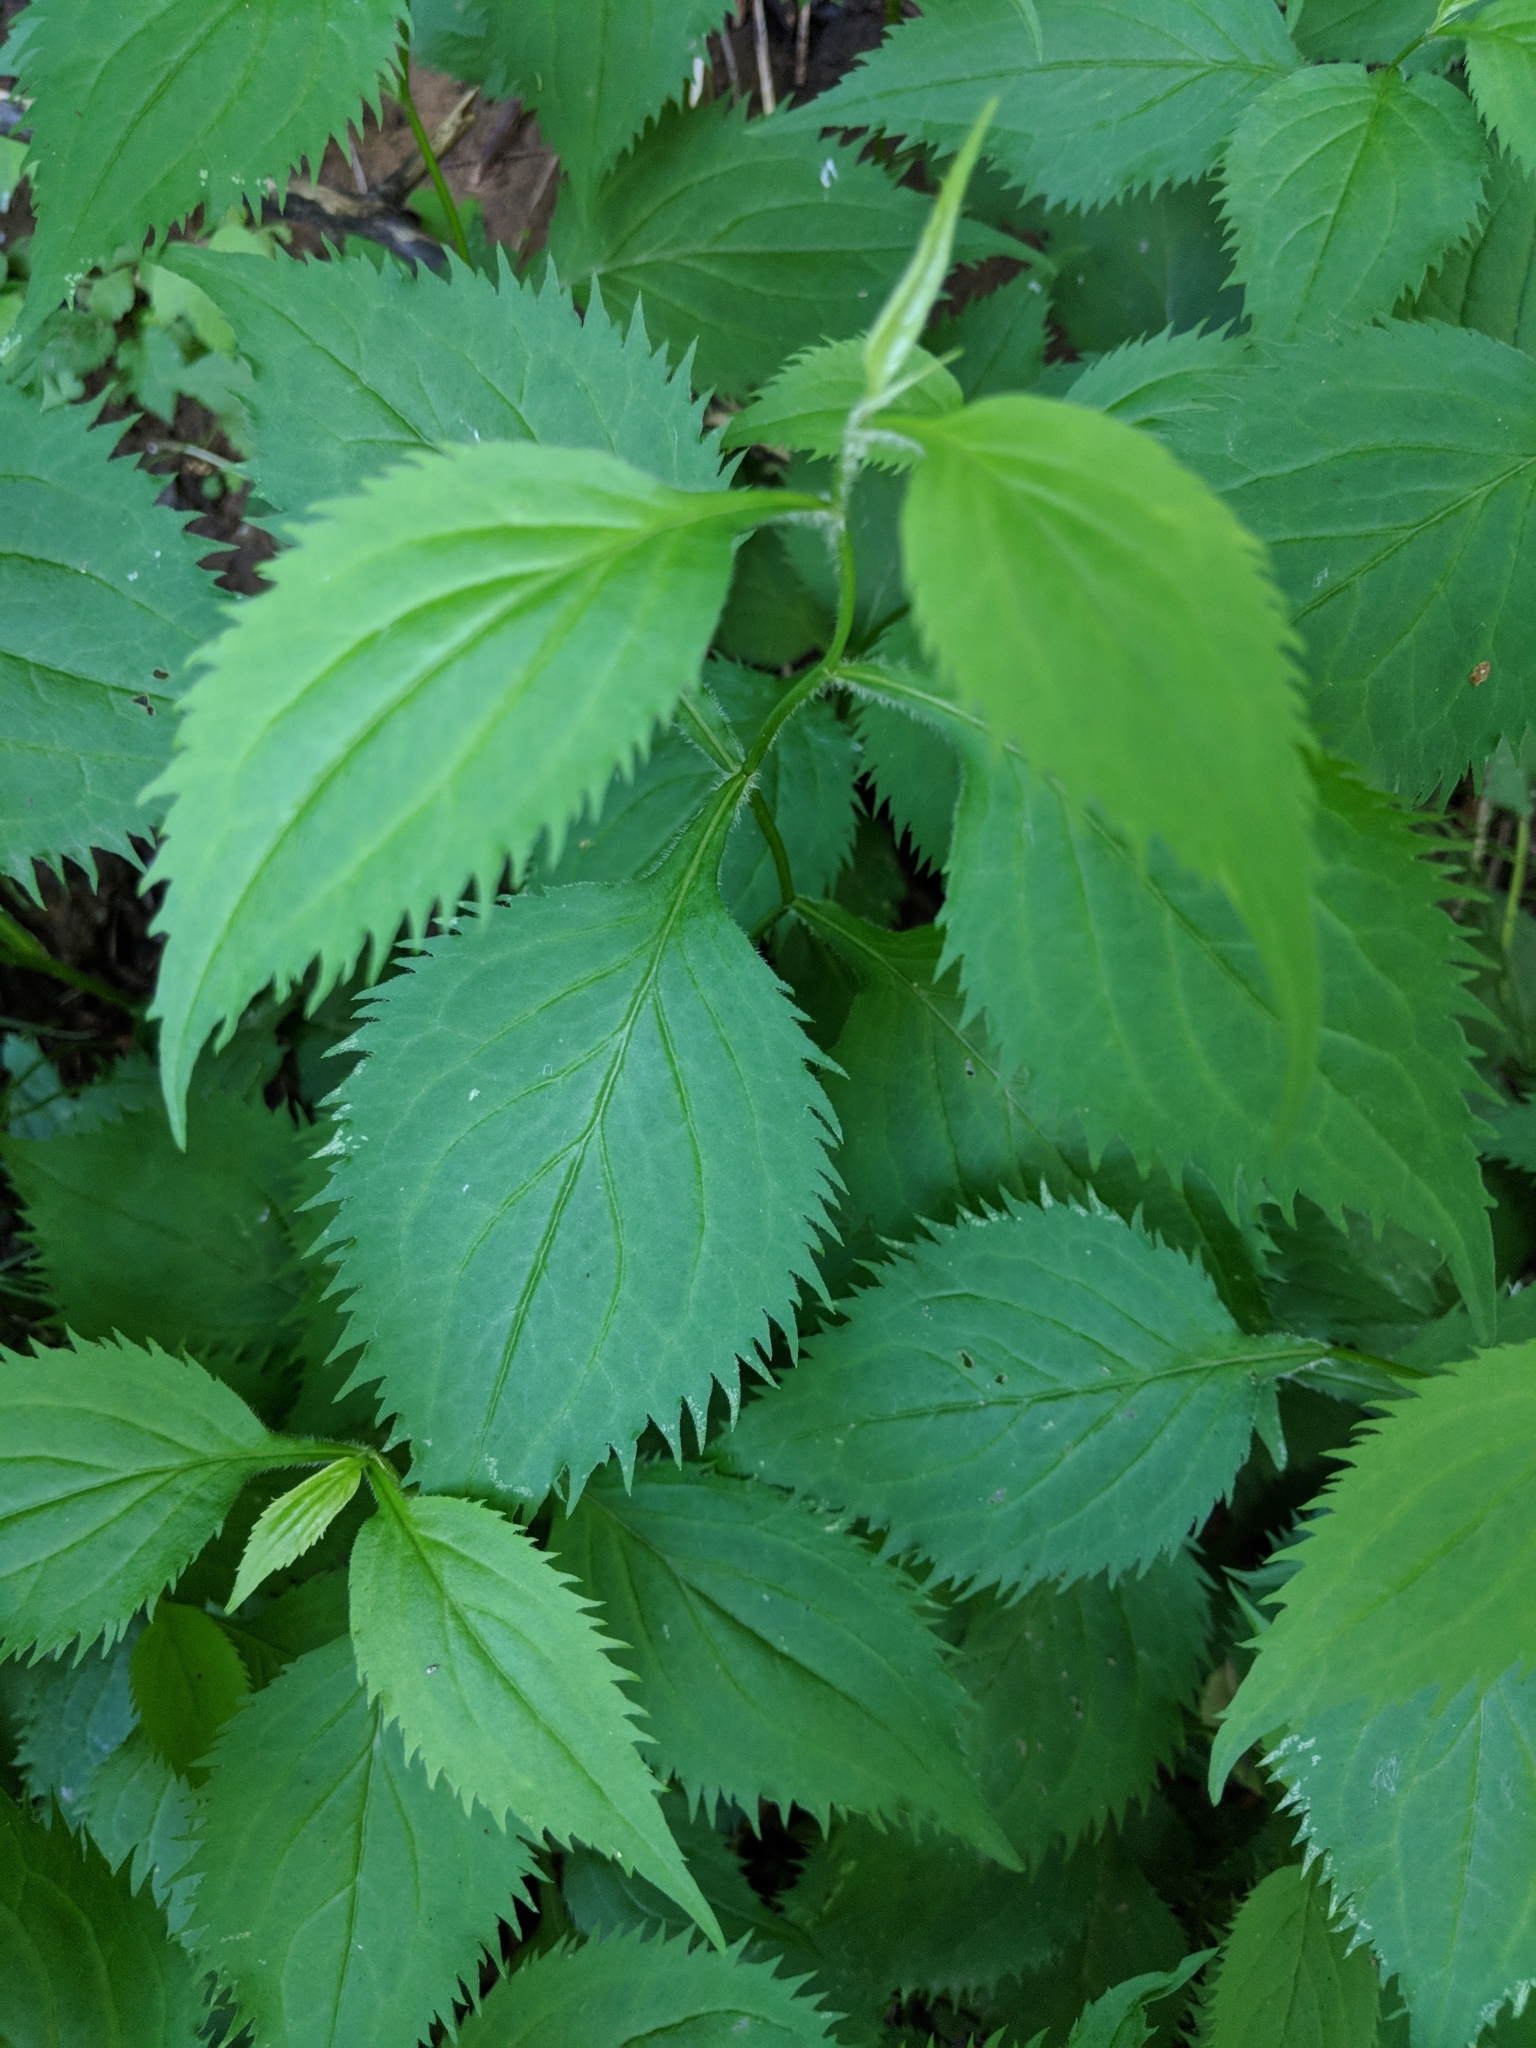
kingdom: Plantae
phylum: Tracheophyta
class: Magnoliopsida
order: Asterales
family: Asteraceae
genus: Solidago
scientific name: Solidago flexicaulis
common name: Zig-zag goldenrod
